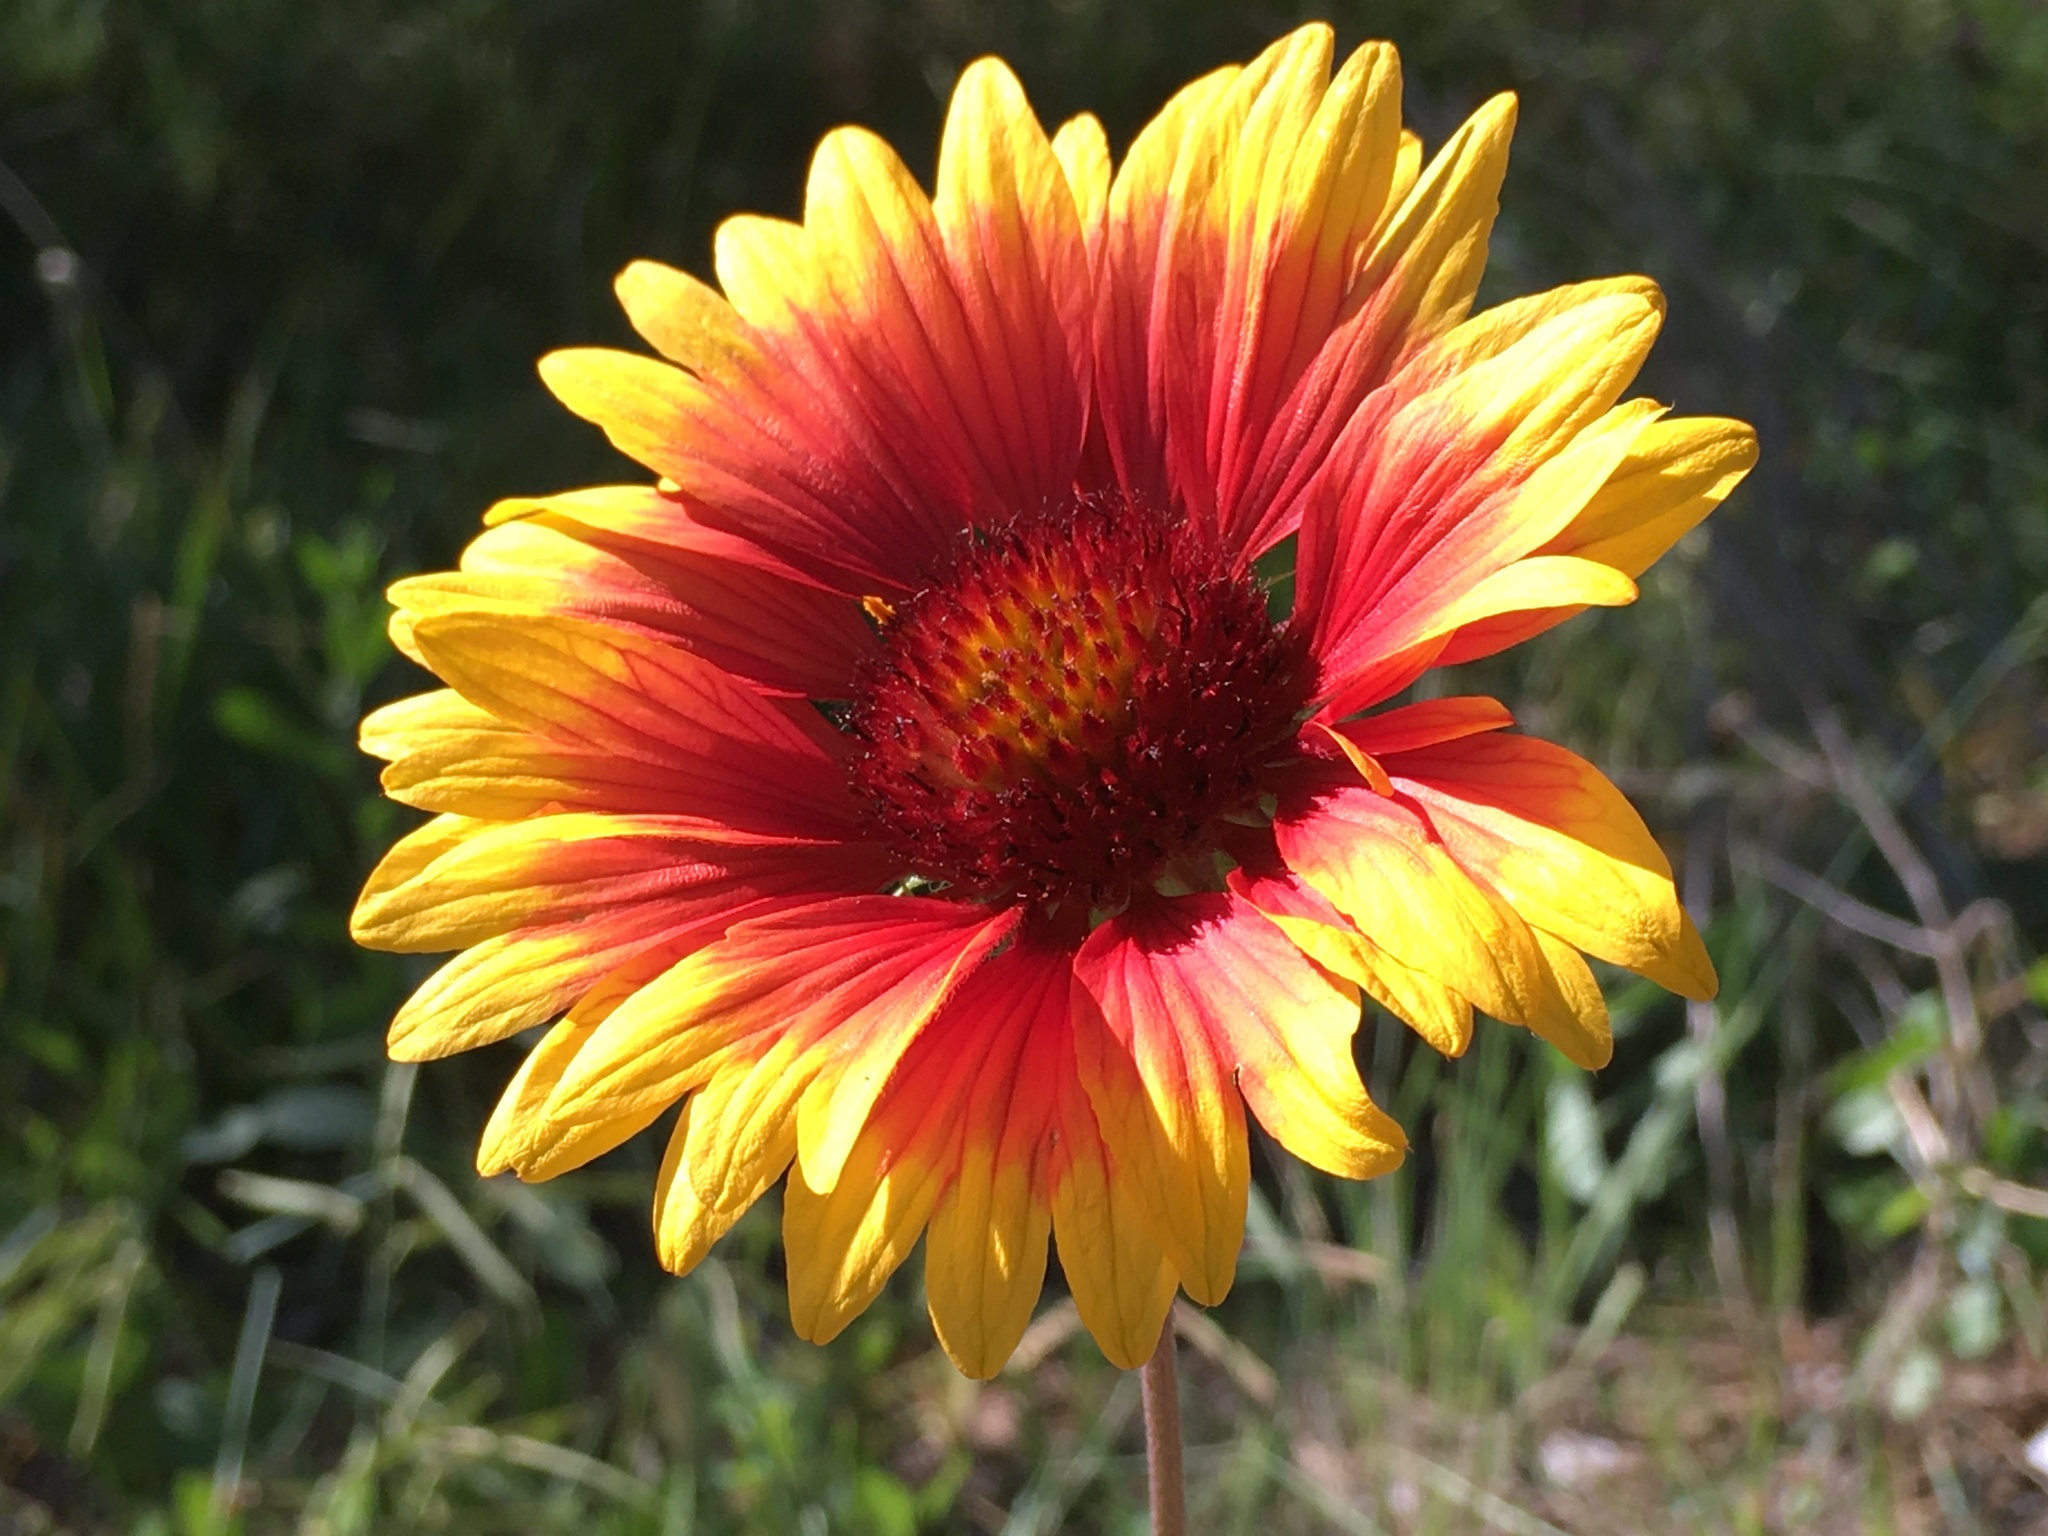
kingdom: Plantae
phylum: Tracheophyta
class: Magnoliopsida
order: Asterales
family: Asteraceae
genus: Gaillardia
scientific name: Gaillardia grandiflora
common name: Blanket flower
